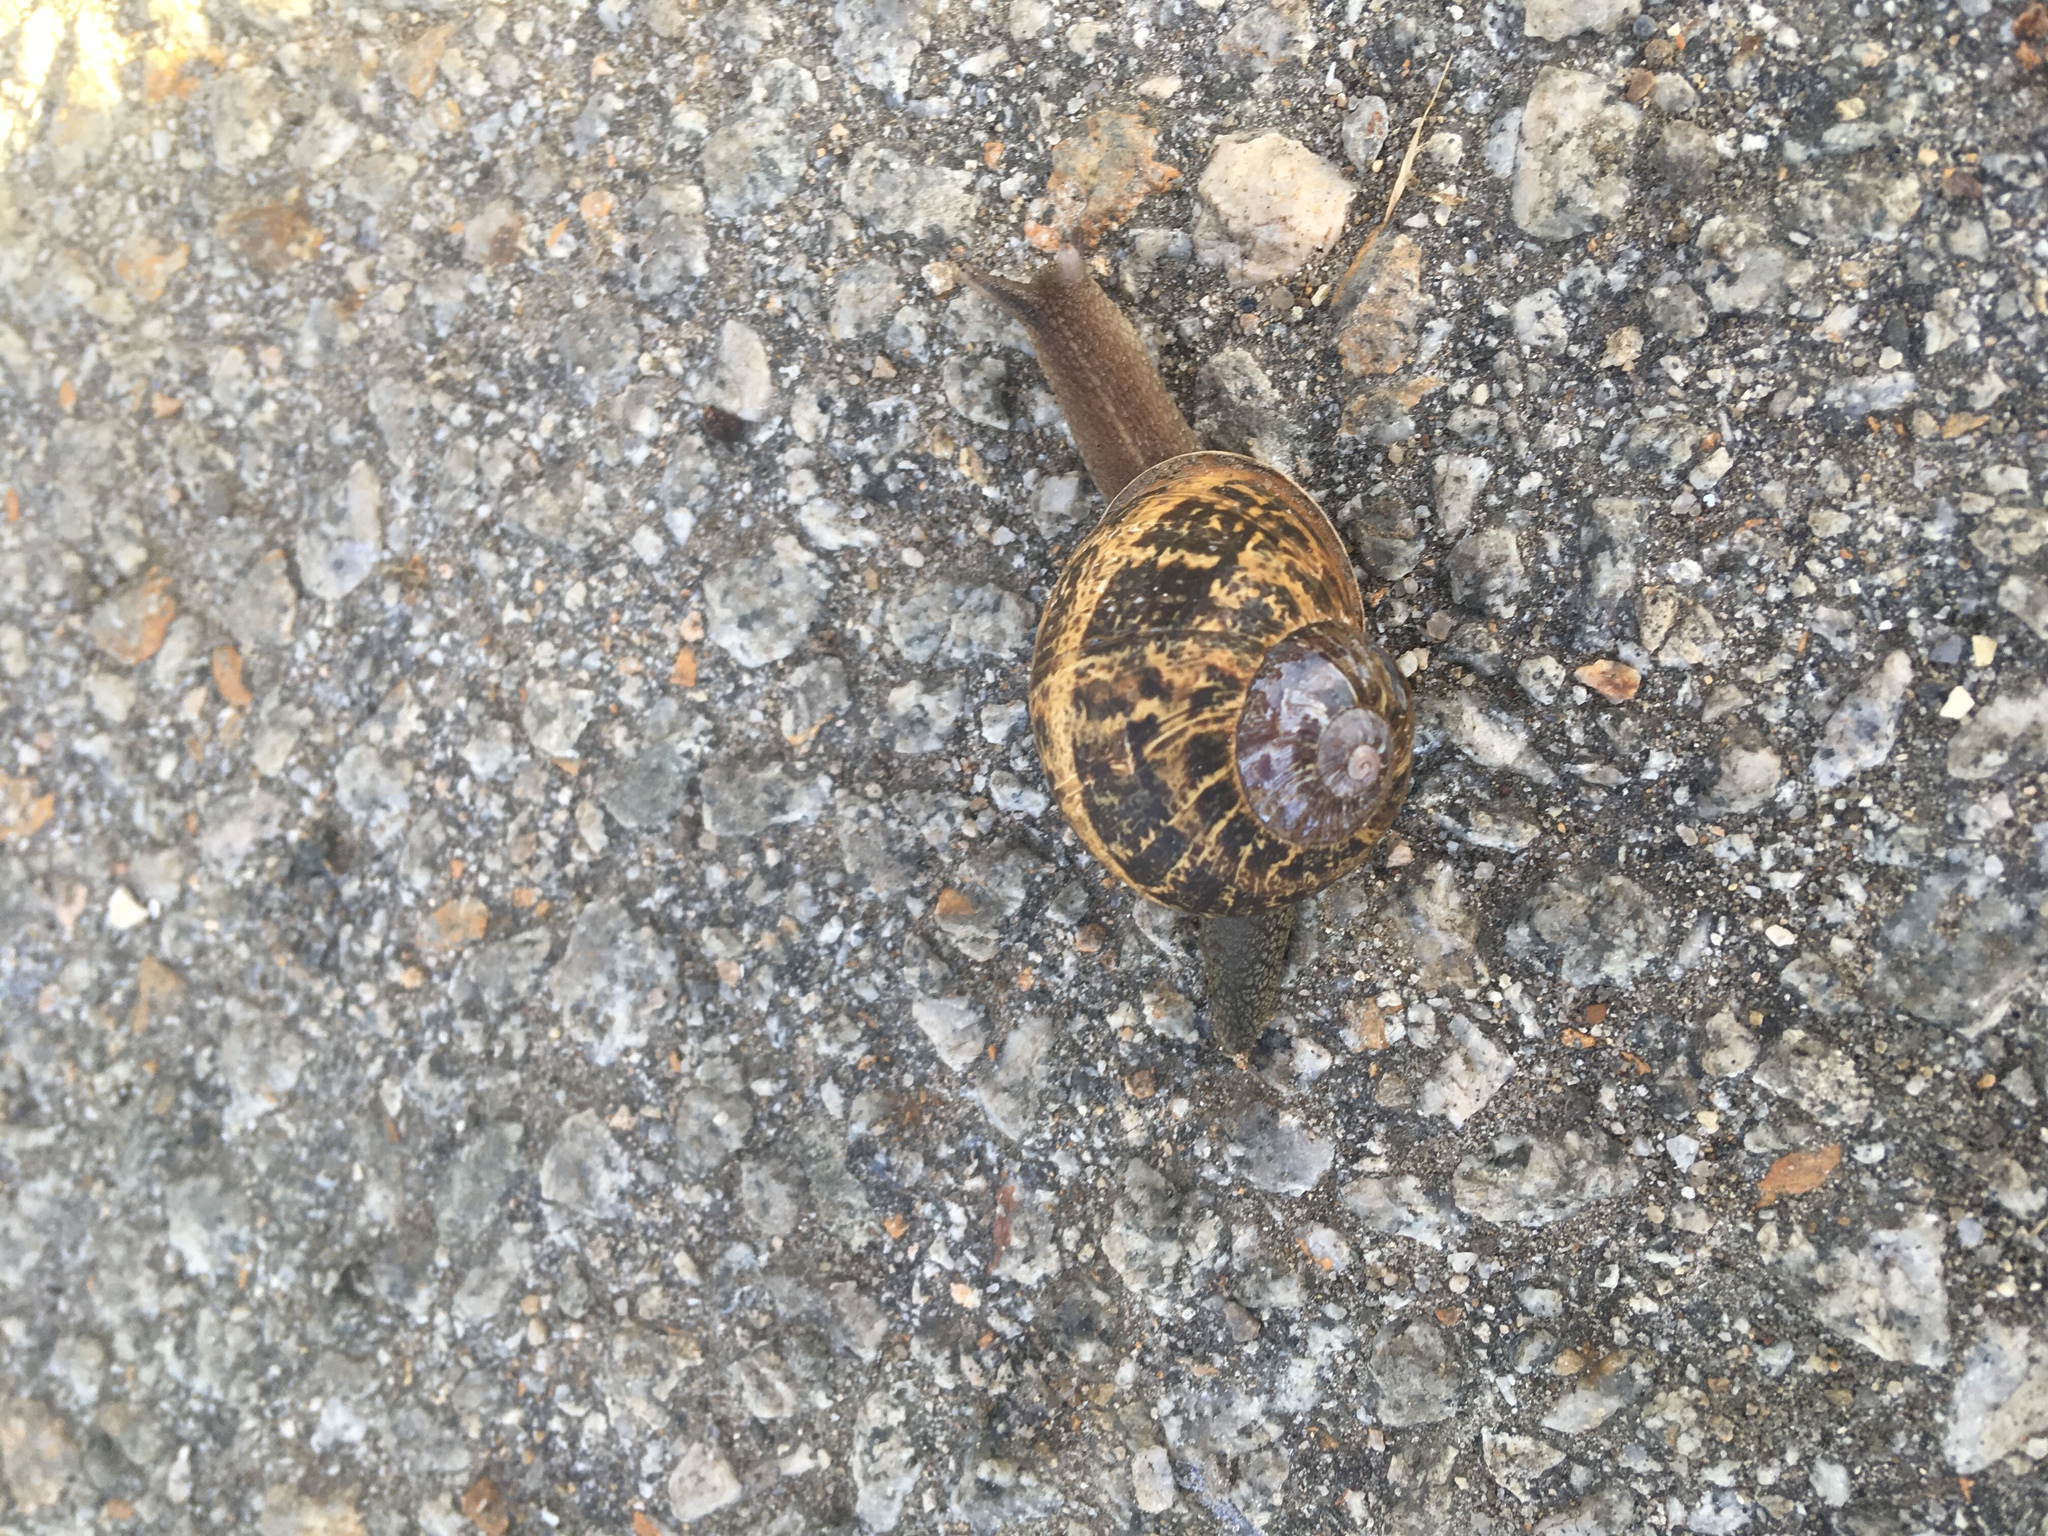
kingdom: Animalia
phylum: Mollusca
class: Gastropoda
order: Stylommatophora
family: Helicidae
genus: Cornu
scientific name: Cornu aspersum
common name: Brown garden snail
